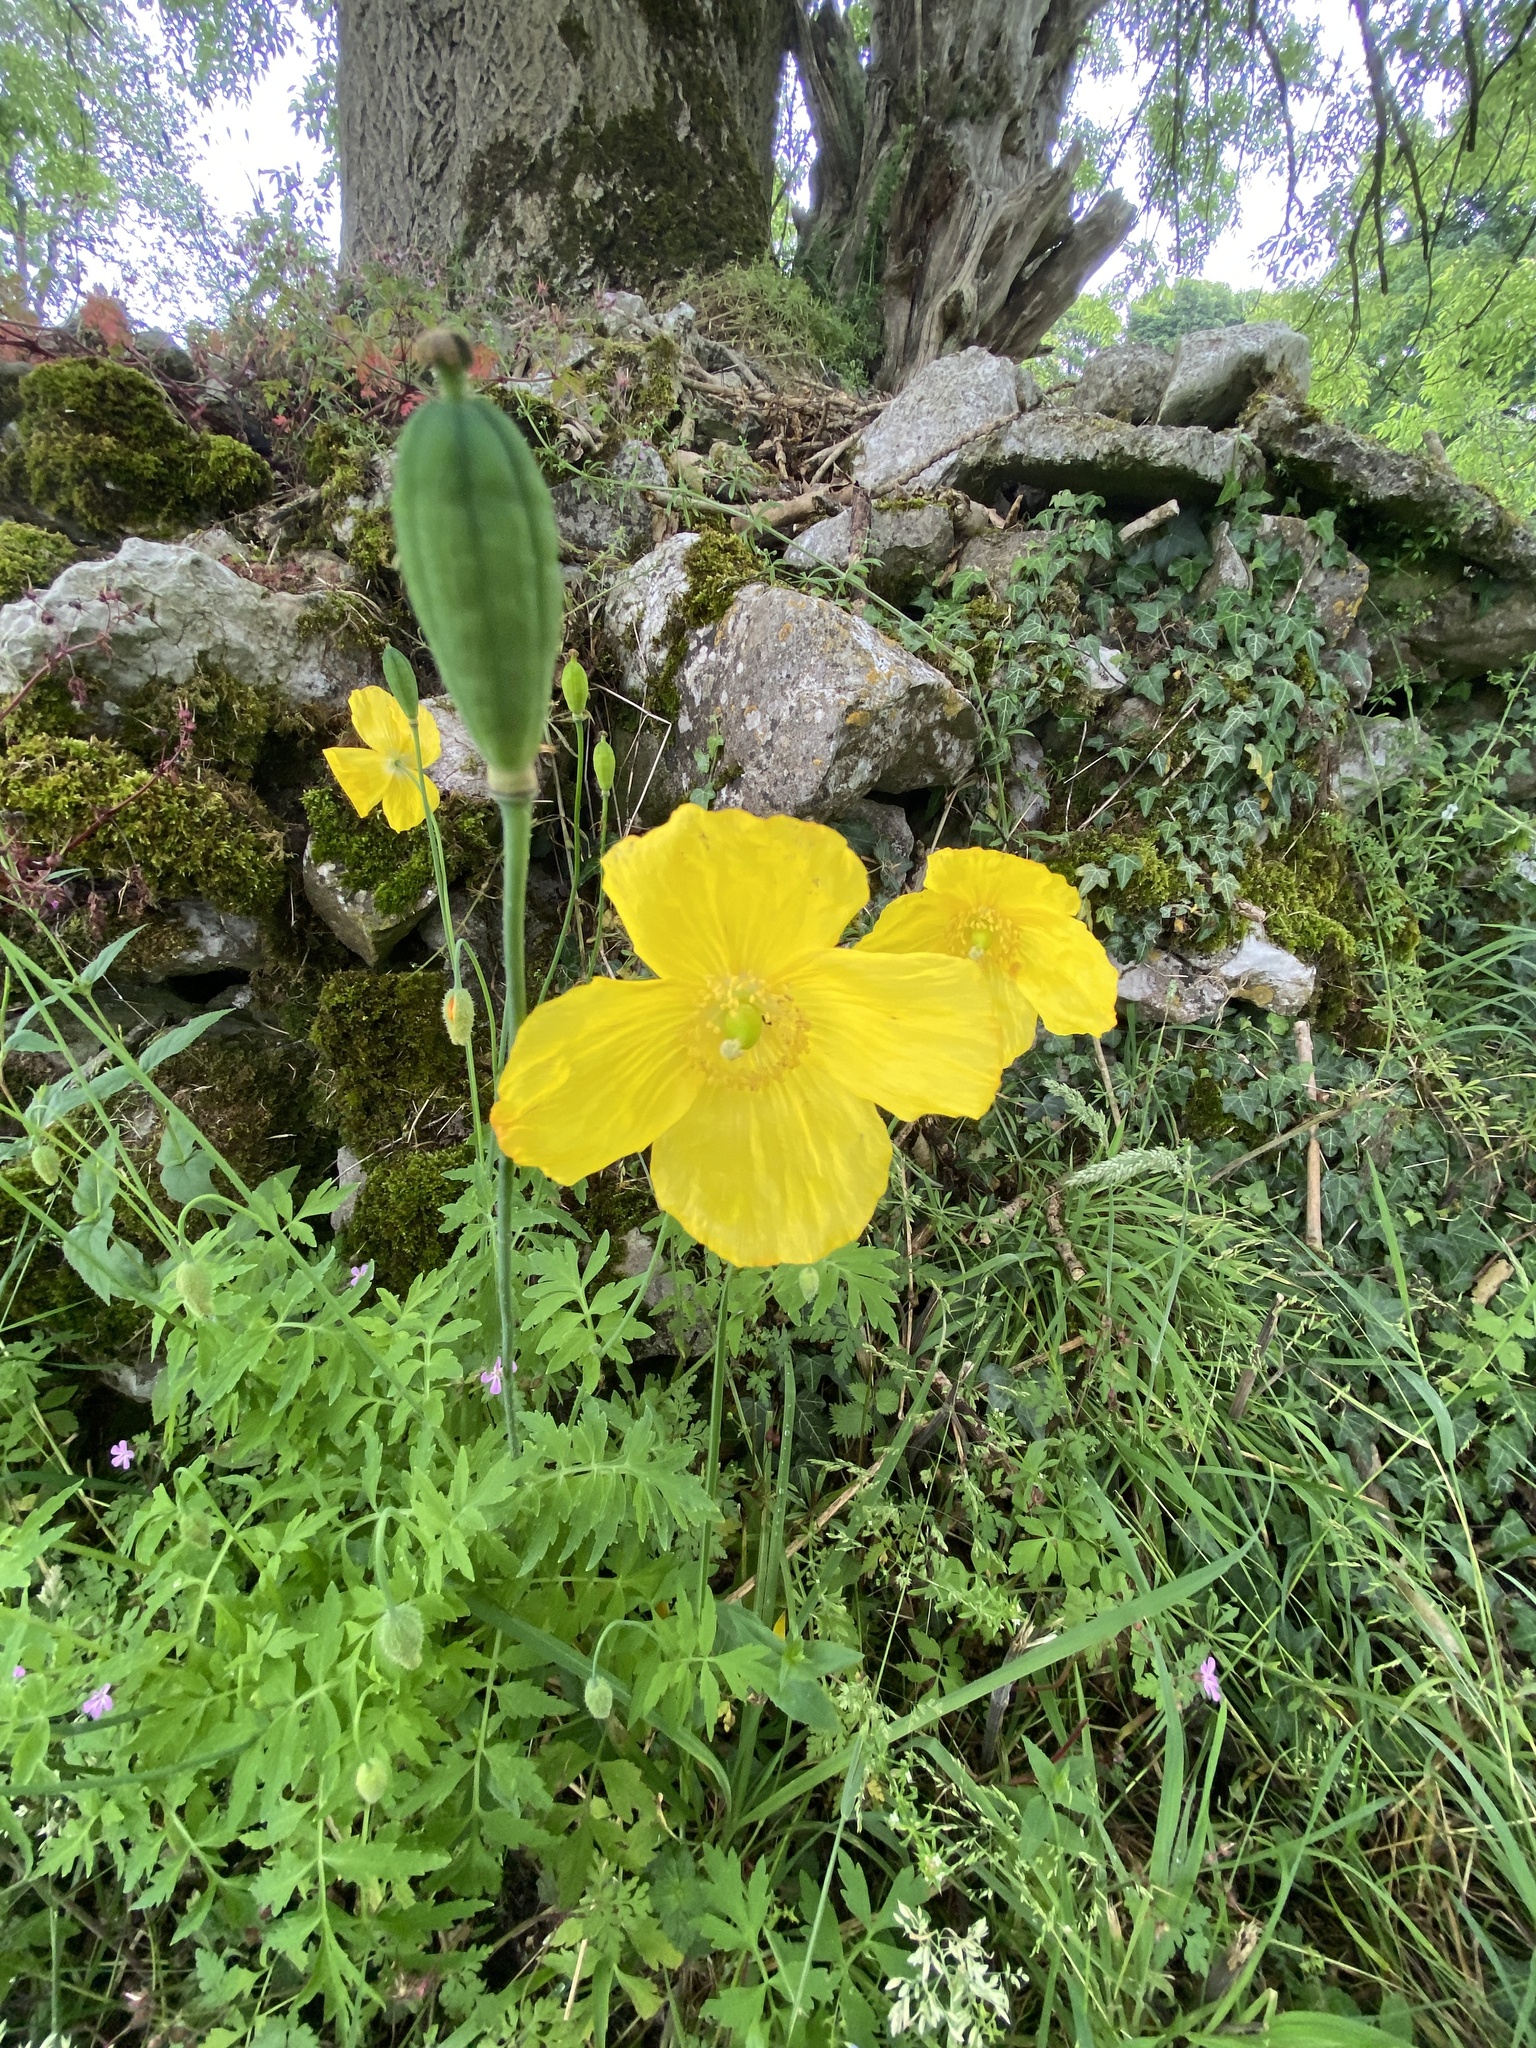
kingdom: Plantae
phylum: Tracheophyta
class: Magnoliopsida
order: Ranunculales
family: Papaveraceae
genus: Papaver
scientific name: Papaver cambricum
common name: Poppy
